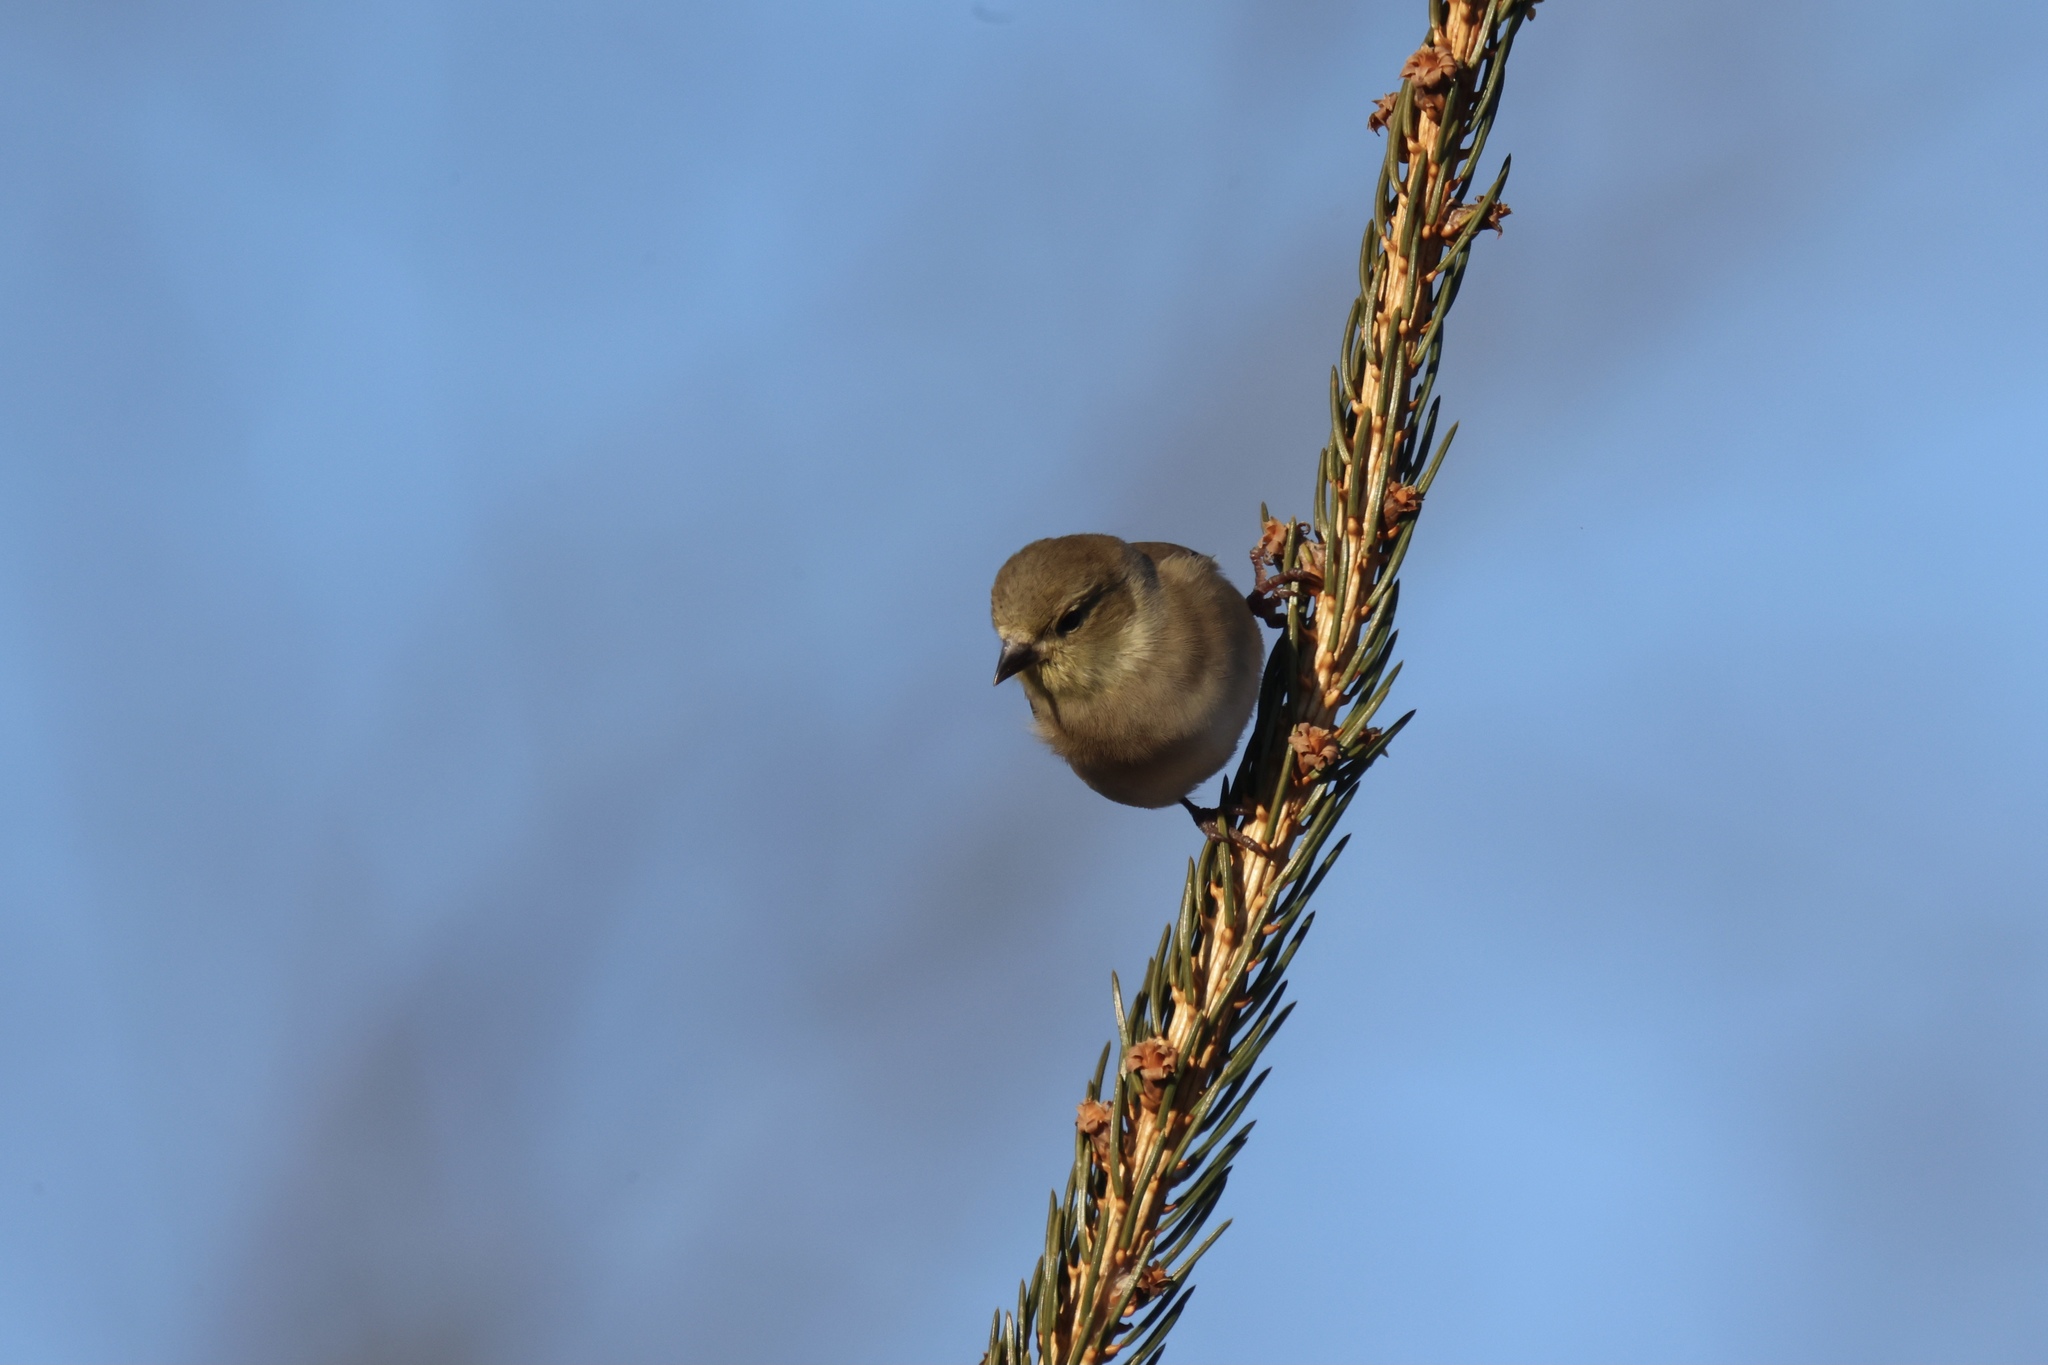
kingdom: Animalia
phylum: Chordata
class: Aves
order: Passeriformes
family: Fringillidae
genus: Spinus
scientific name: Spinus tristis
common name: American goldfinch
